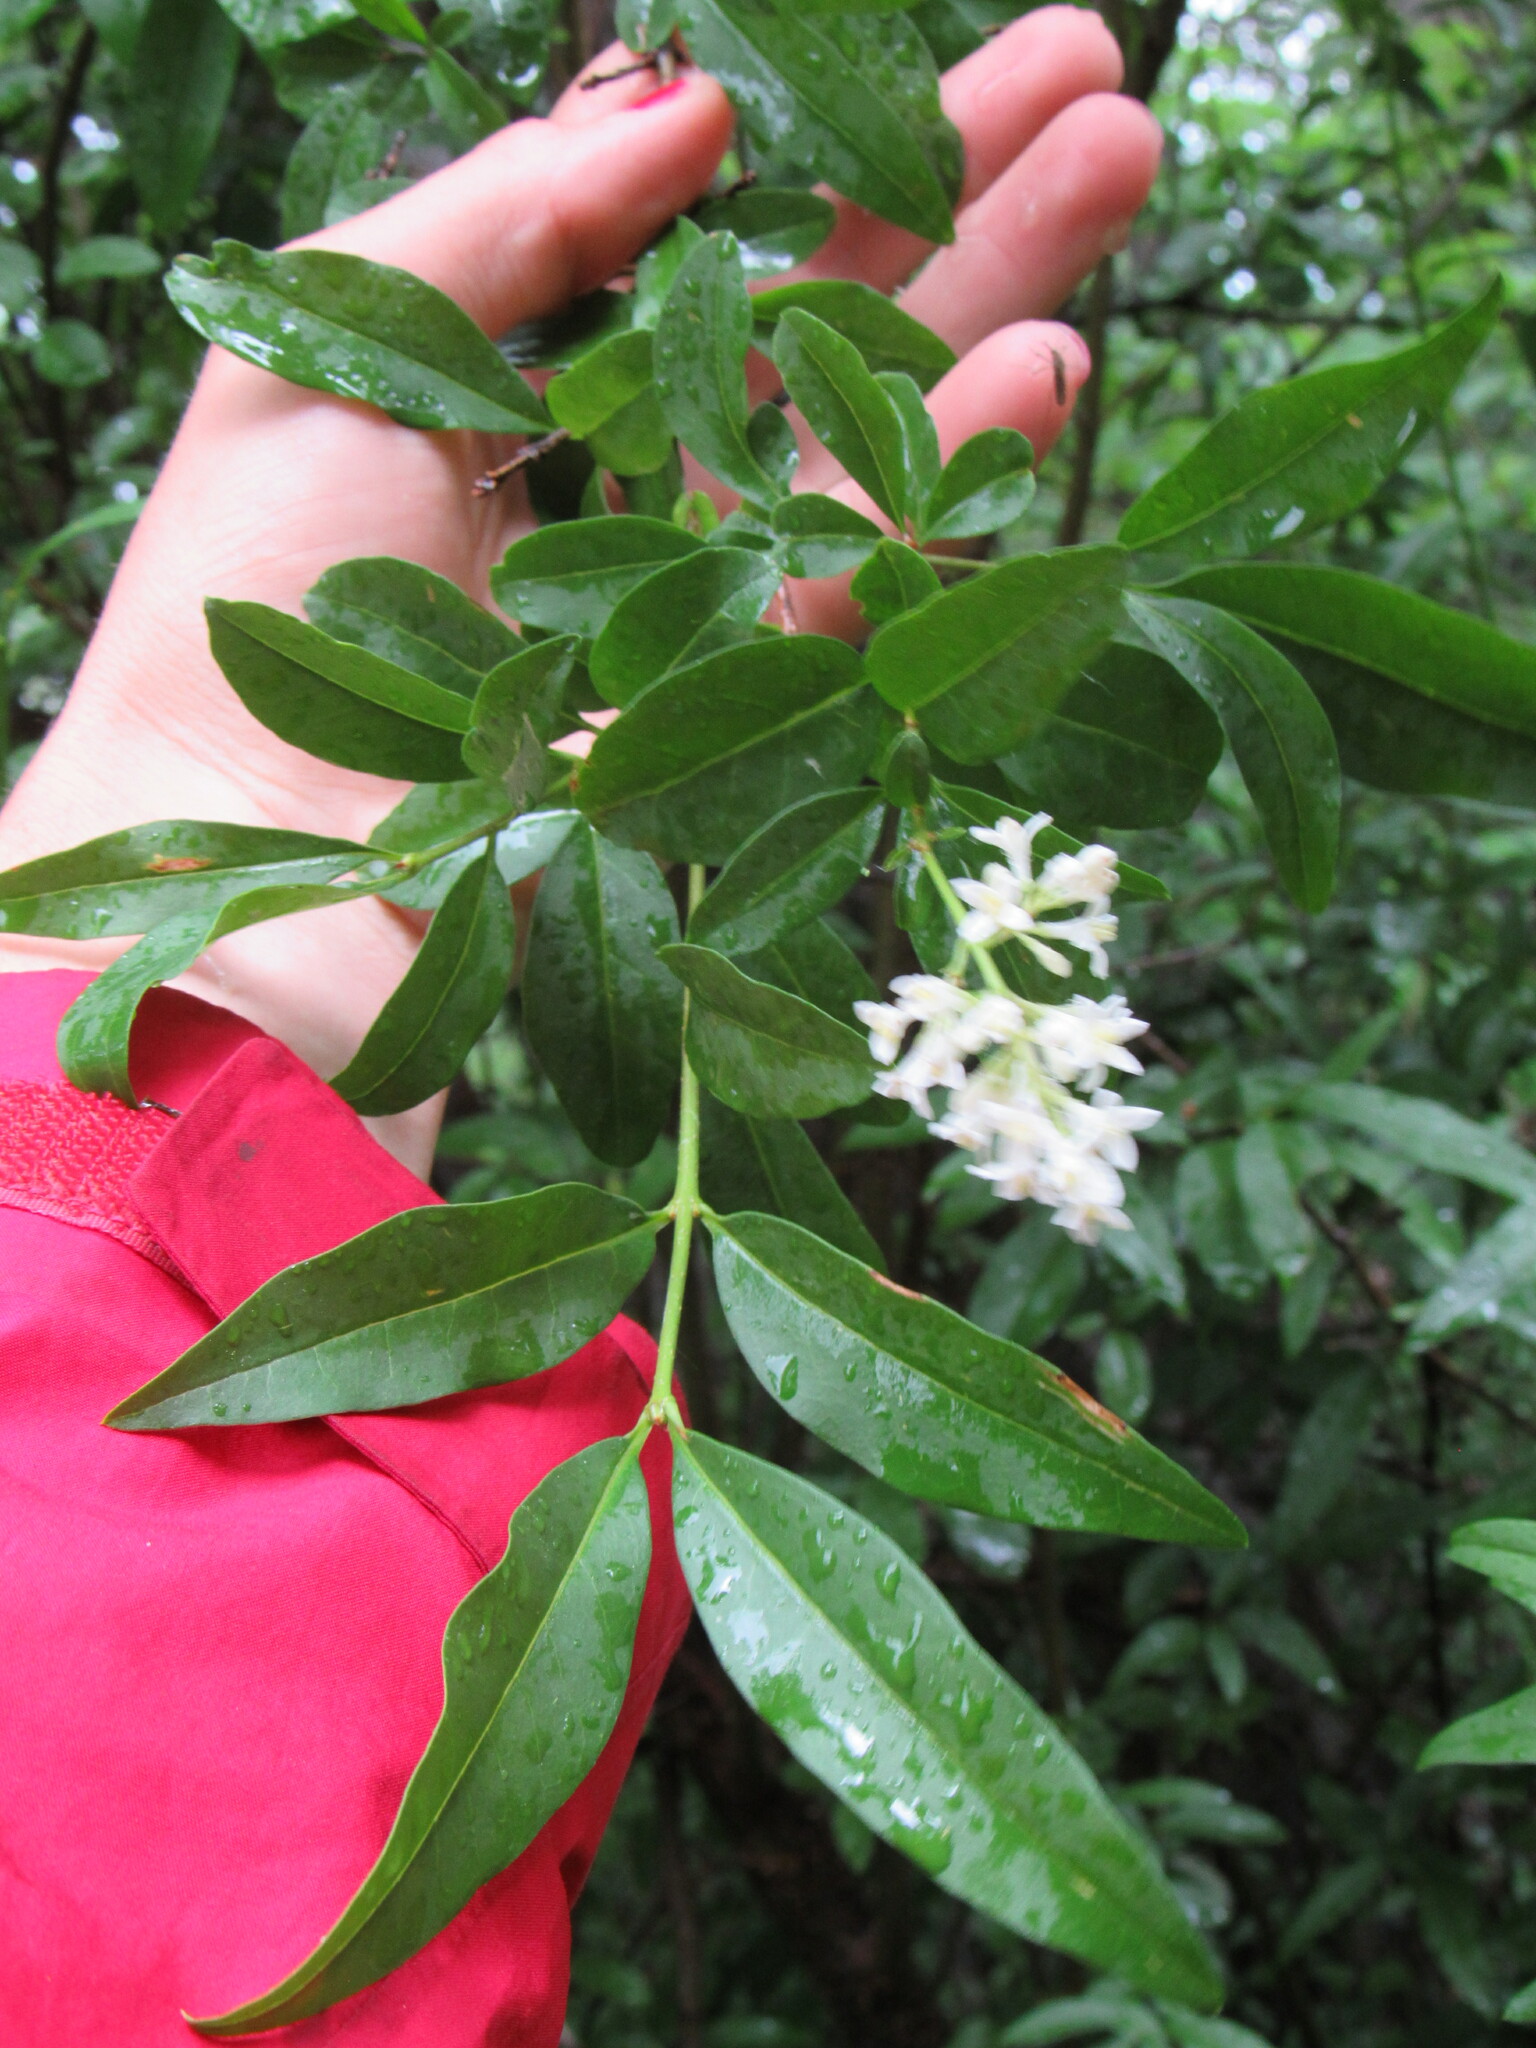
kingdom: Plantae
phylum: Tracheophyta
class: Magnoliopsida
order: Lamiales
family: Oleaceae
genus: Ligustrum
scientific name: Ligustrum vulgare
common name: Wild privet
